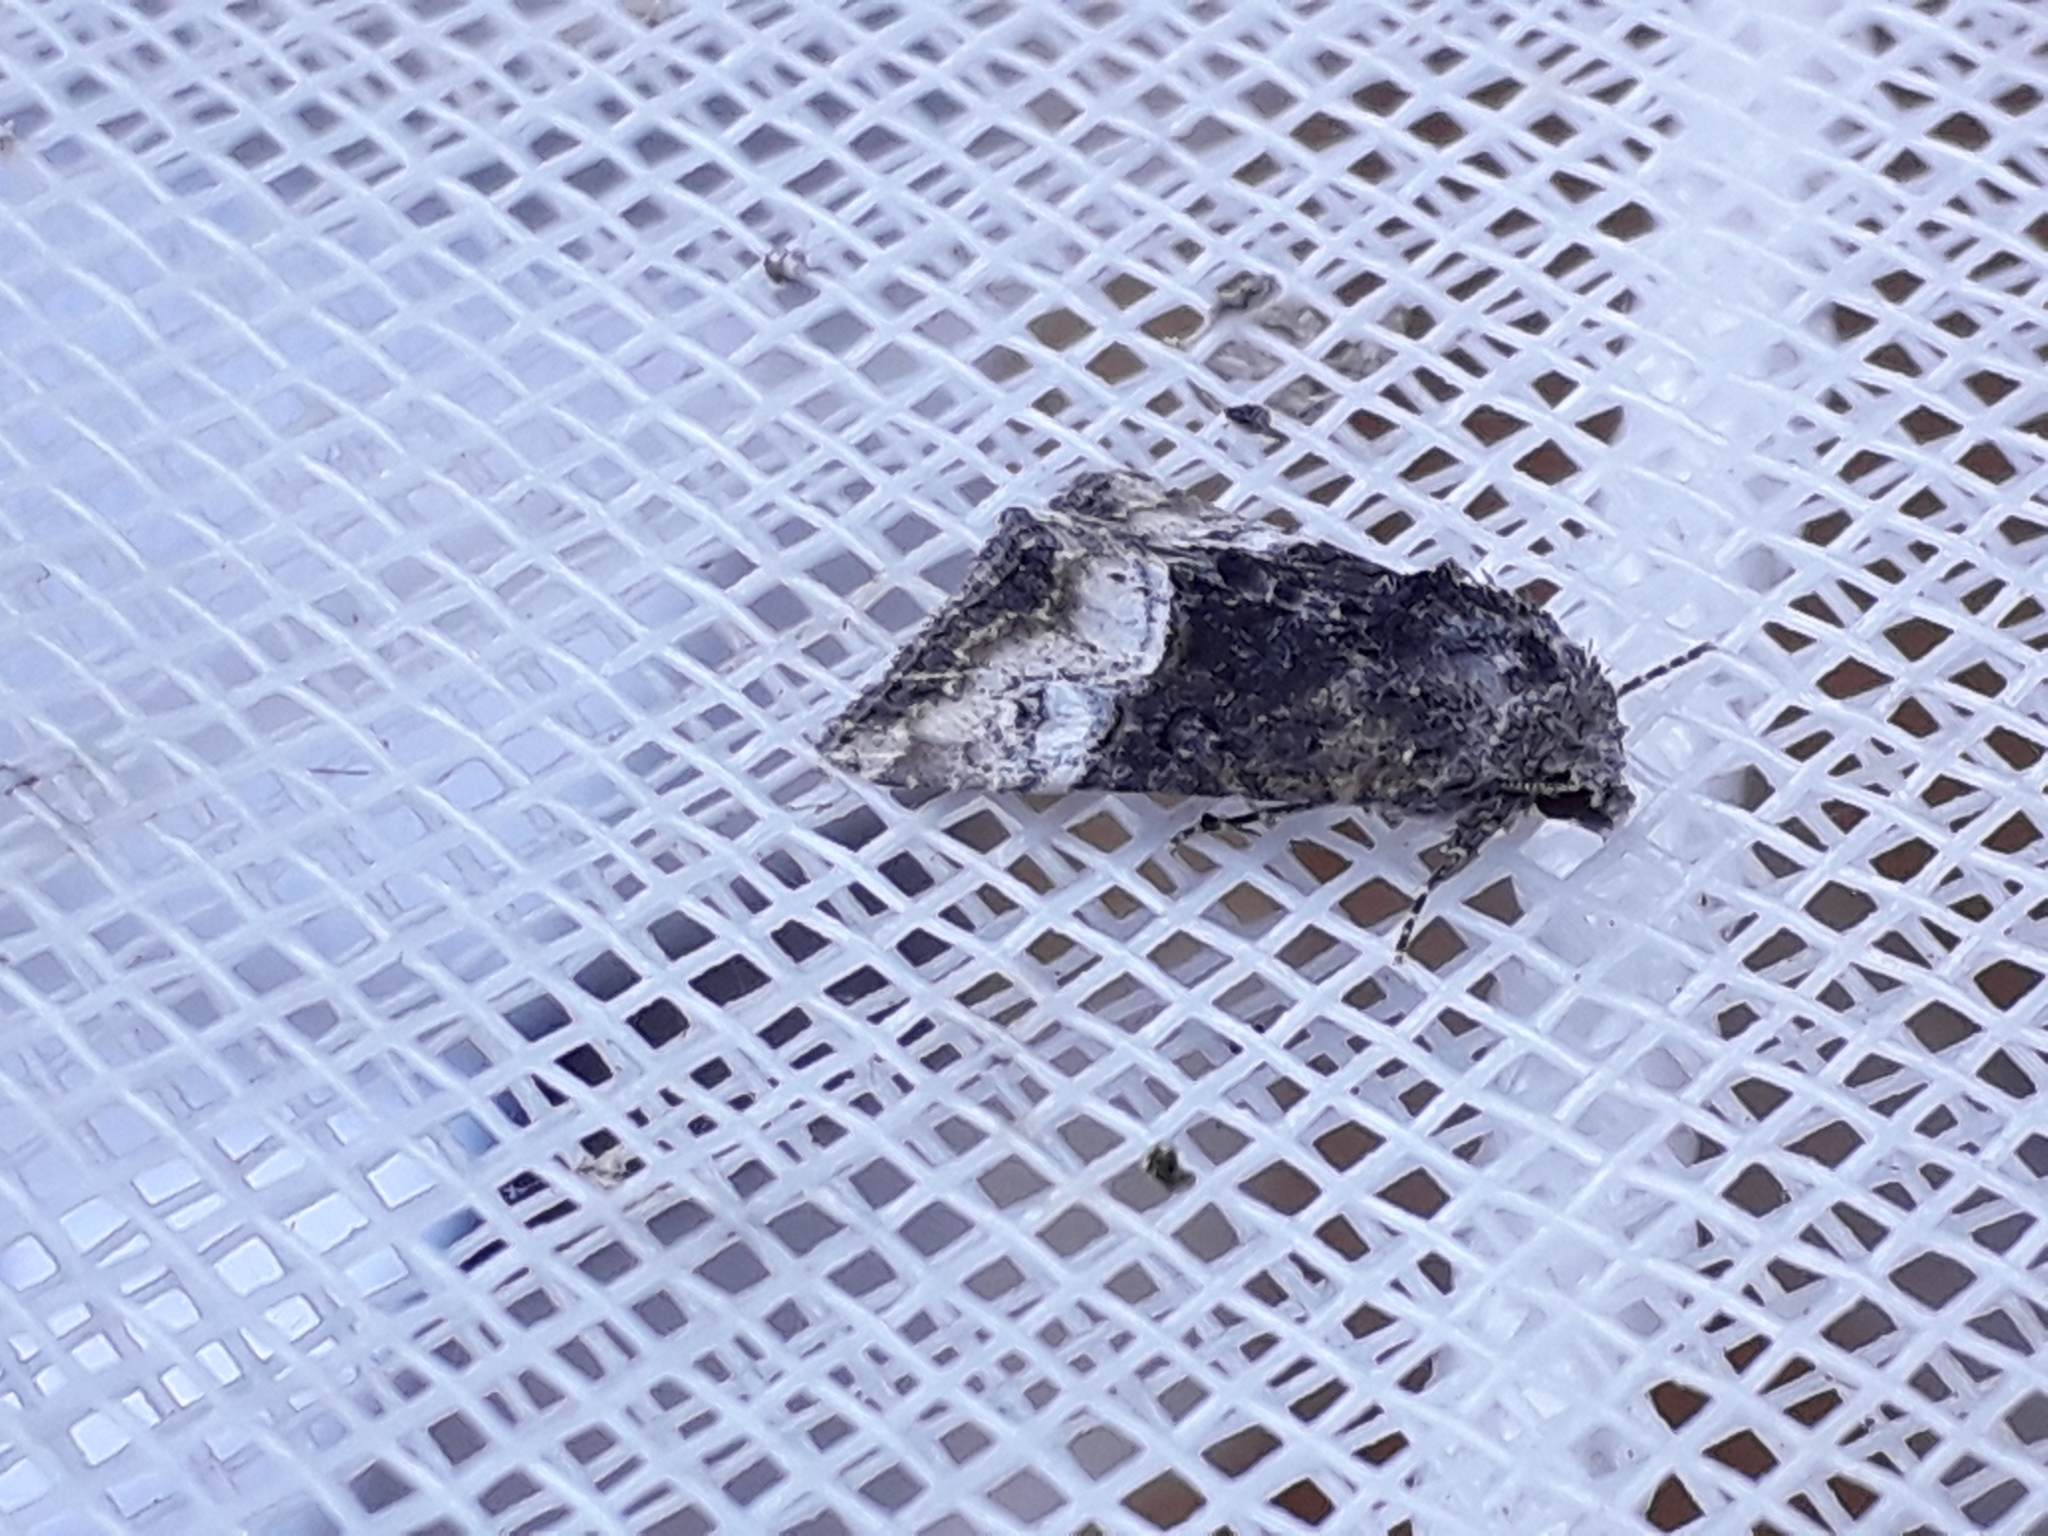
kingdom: Animalia
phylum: Arthropoda
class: Insecta
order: Lepidoptera
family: Noctuidae
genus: Mesoligia
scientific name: Mesoligia furuncula
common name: Cloaked minor
